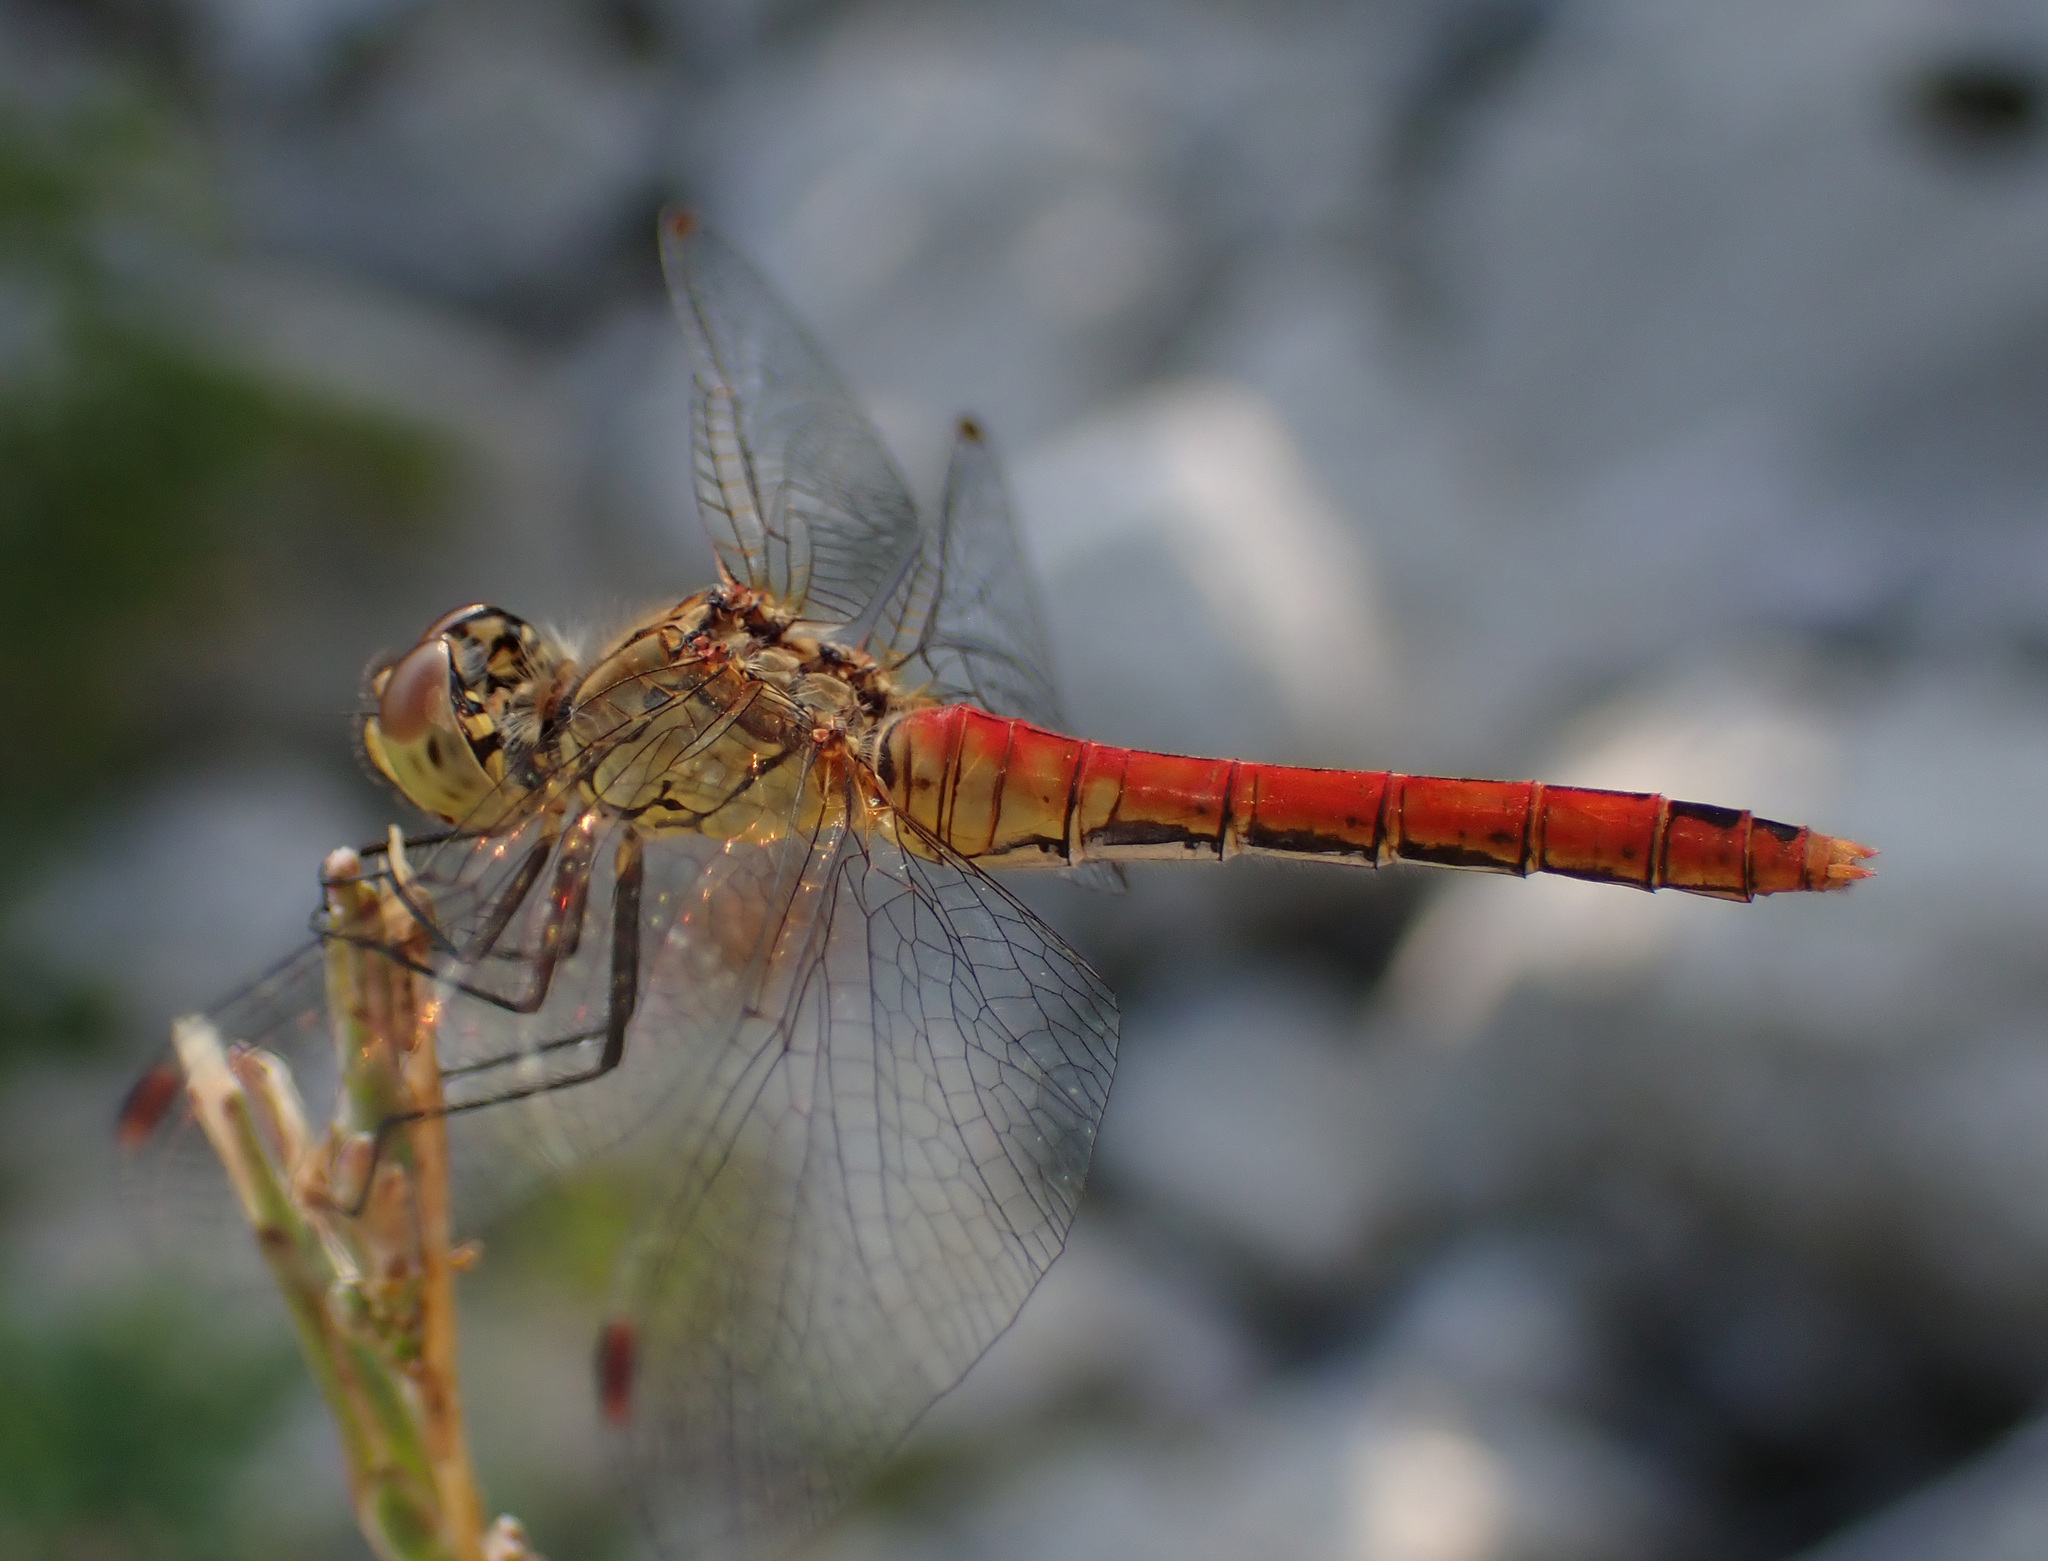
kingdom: Animalia
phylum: Arthropoda
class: Insecta
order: Odonata
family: Libellulidae
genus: Sympetrum
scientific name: Sympetrum sanguineum
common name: Ruddy darter
